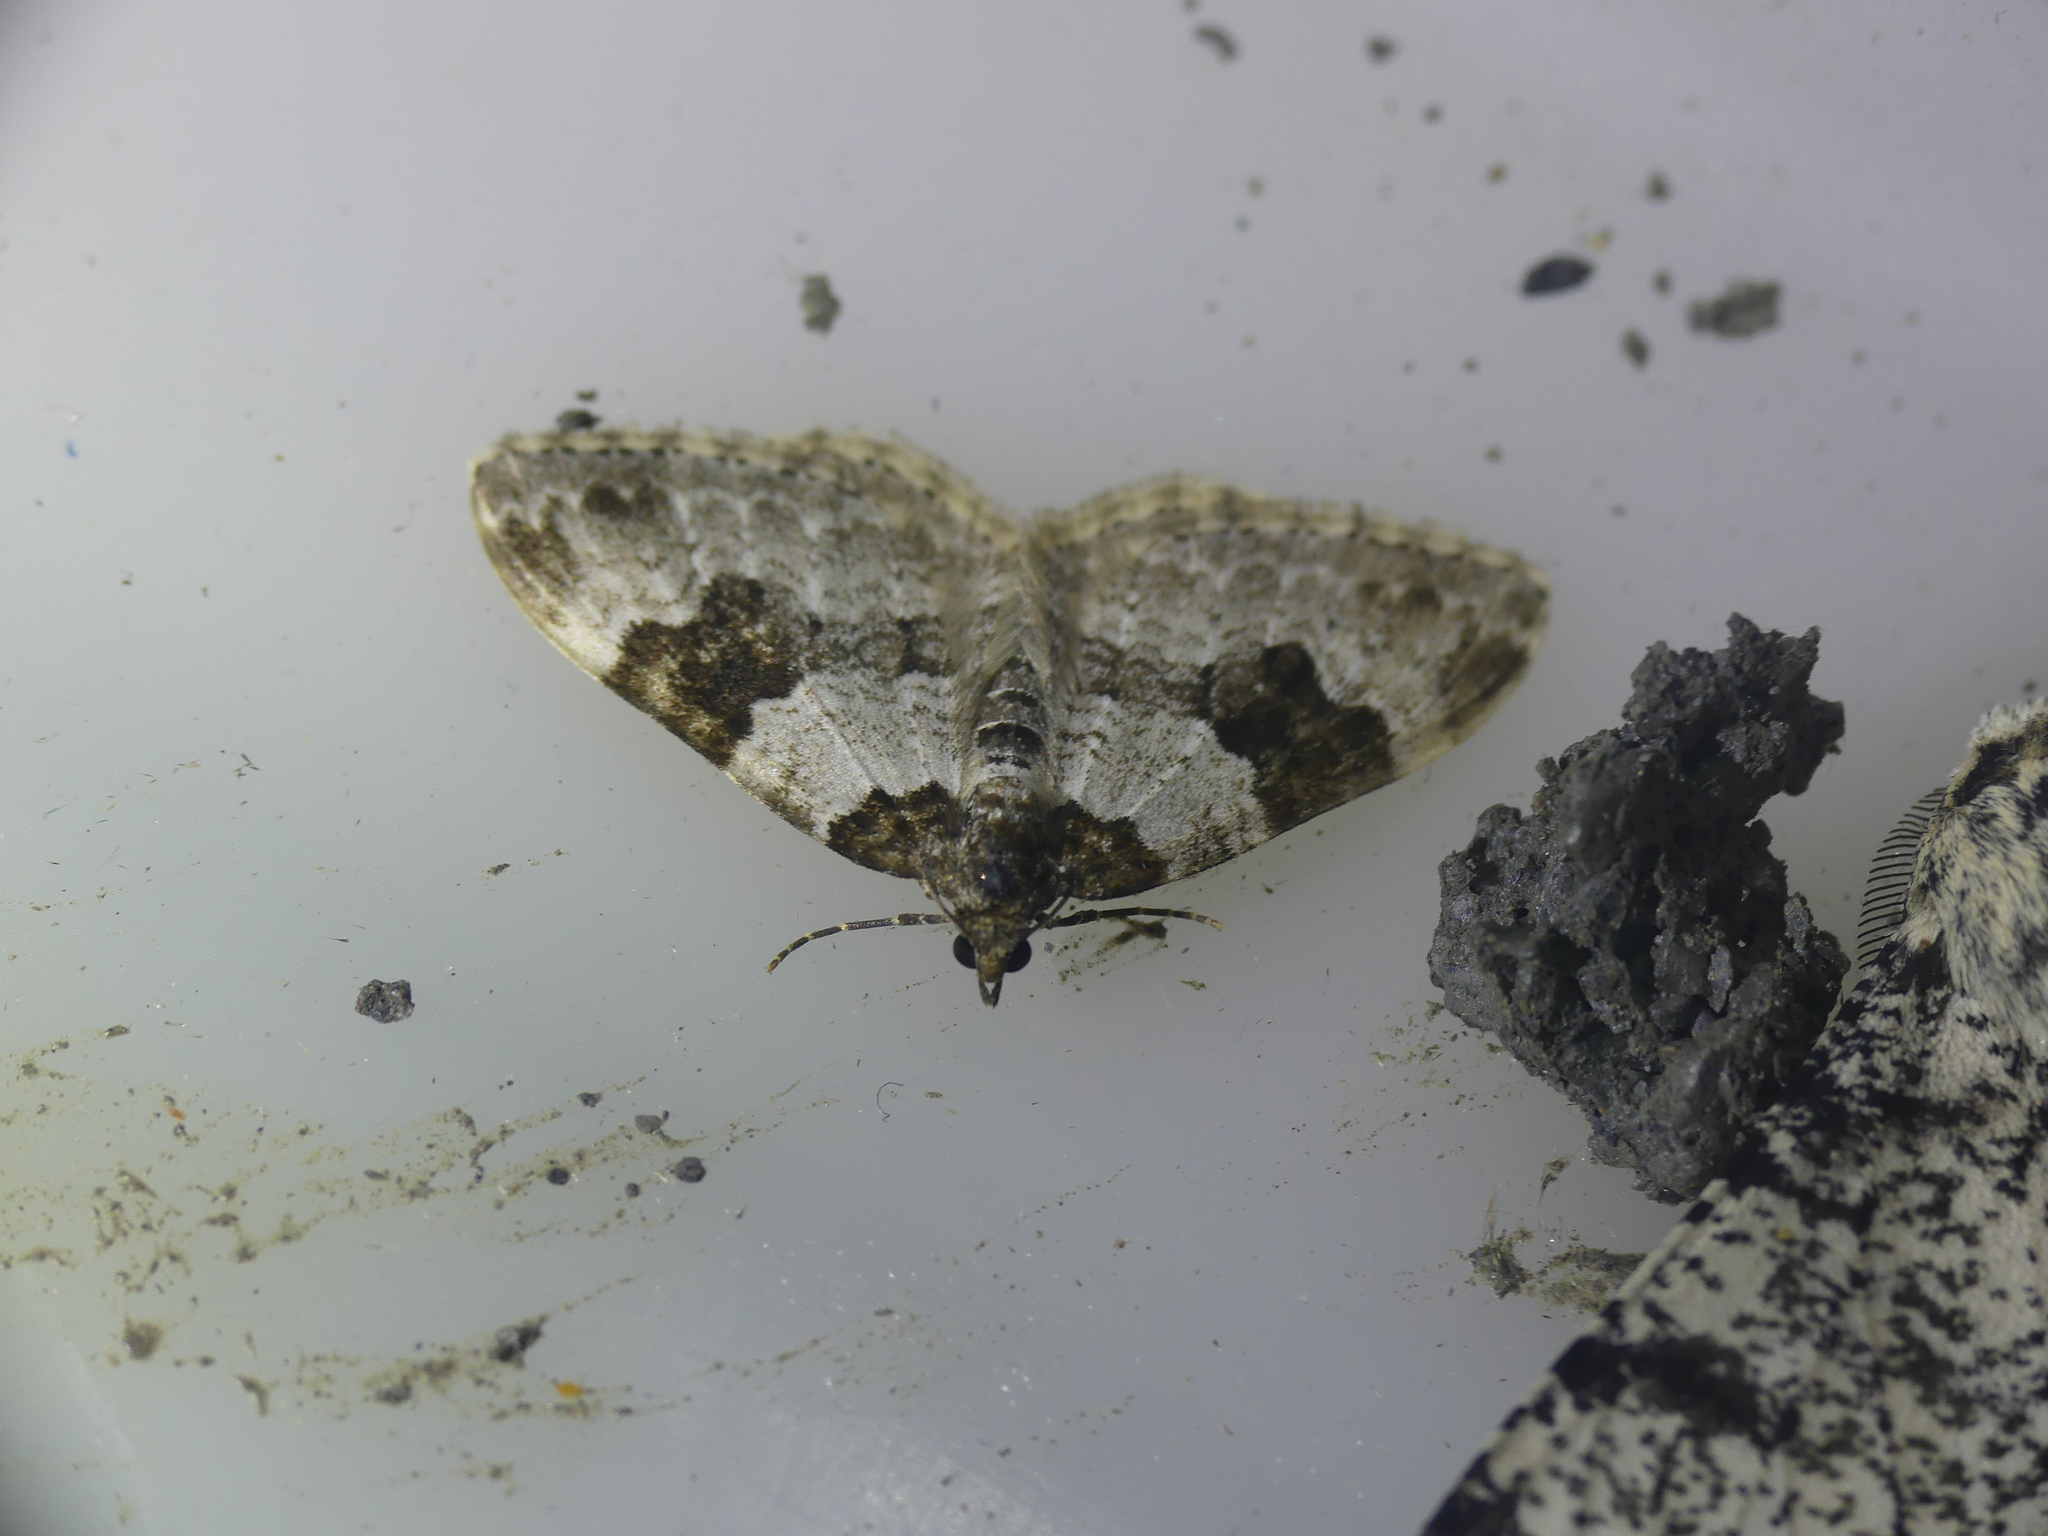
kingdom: Animalia
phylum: Arthropoda
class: Insecta
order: Lepidoptera
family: Geometridae
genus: Xanthorhoe
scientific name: Xanthorhoe fluctuata
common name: Garden carpet
